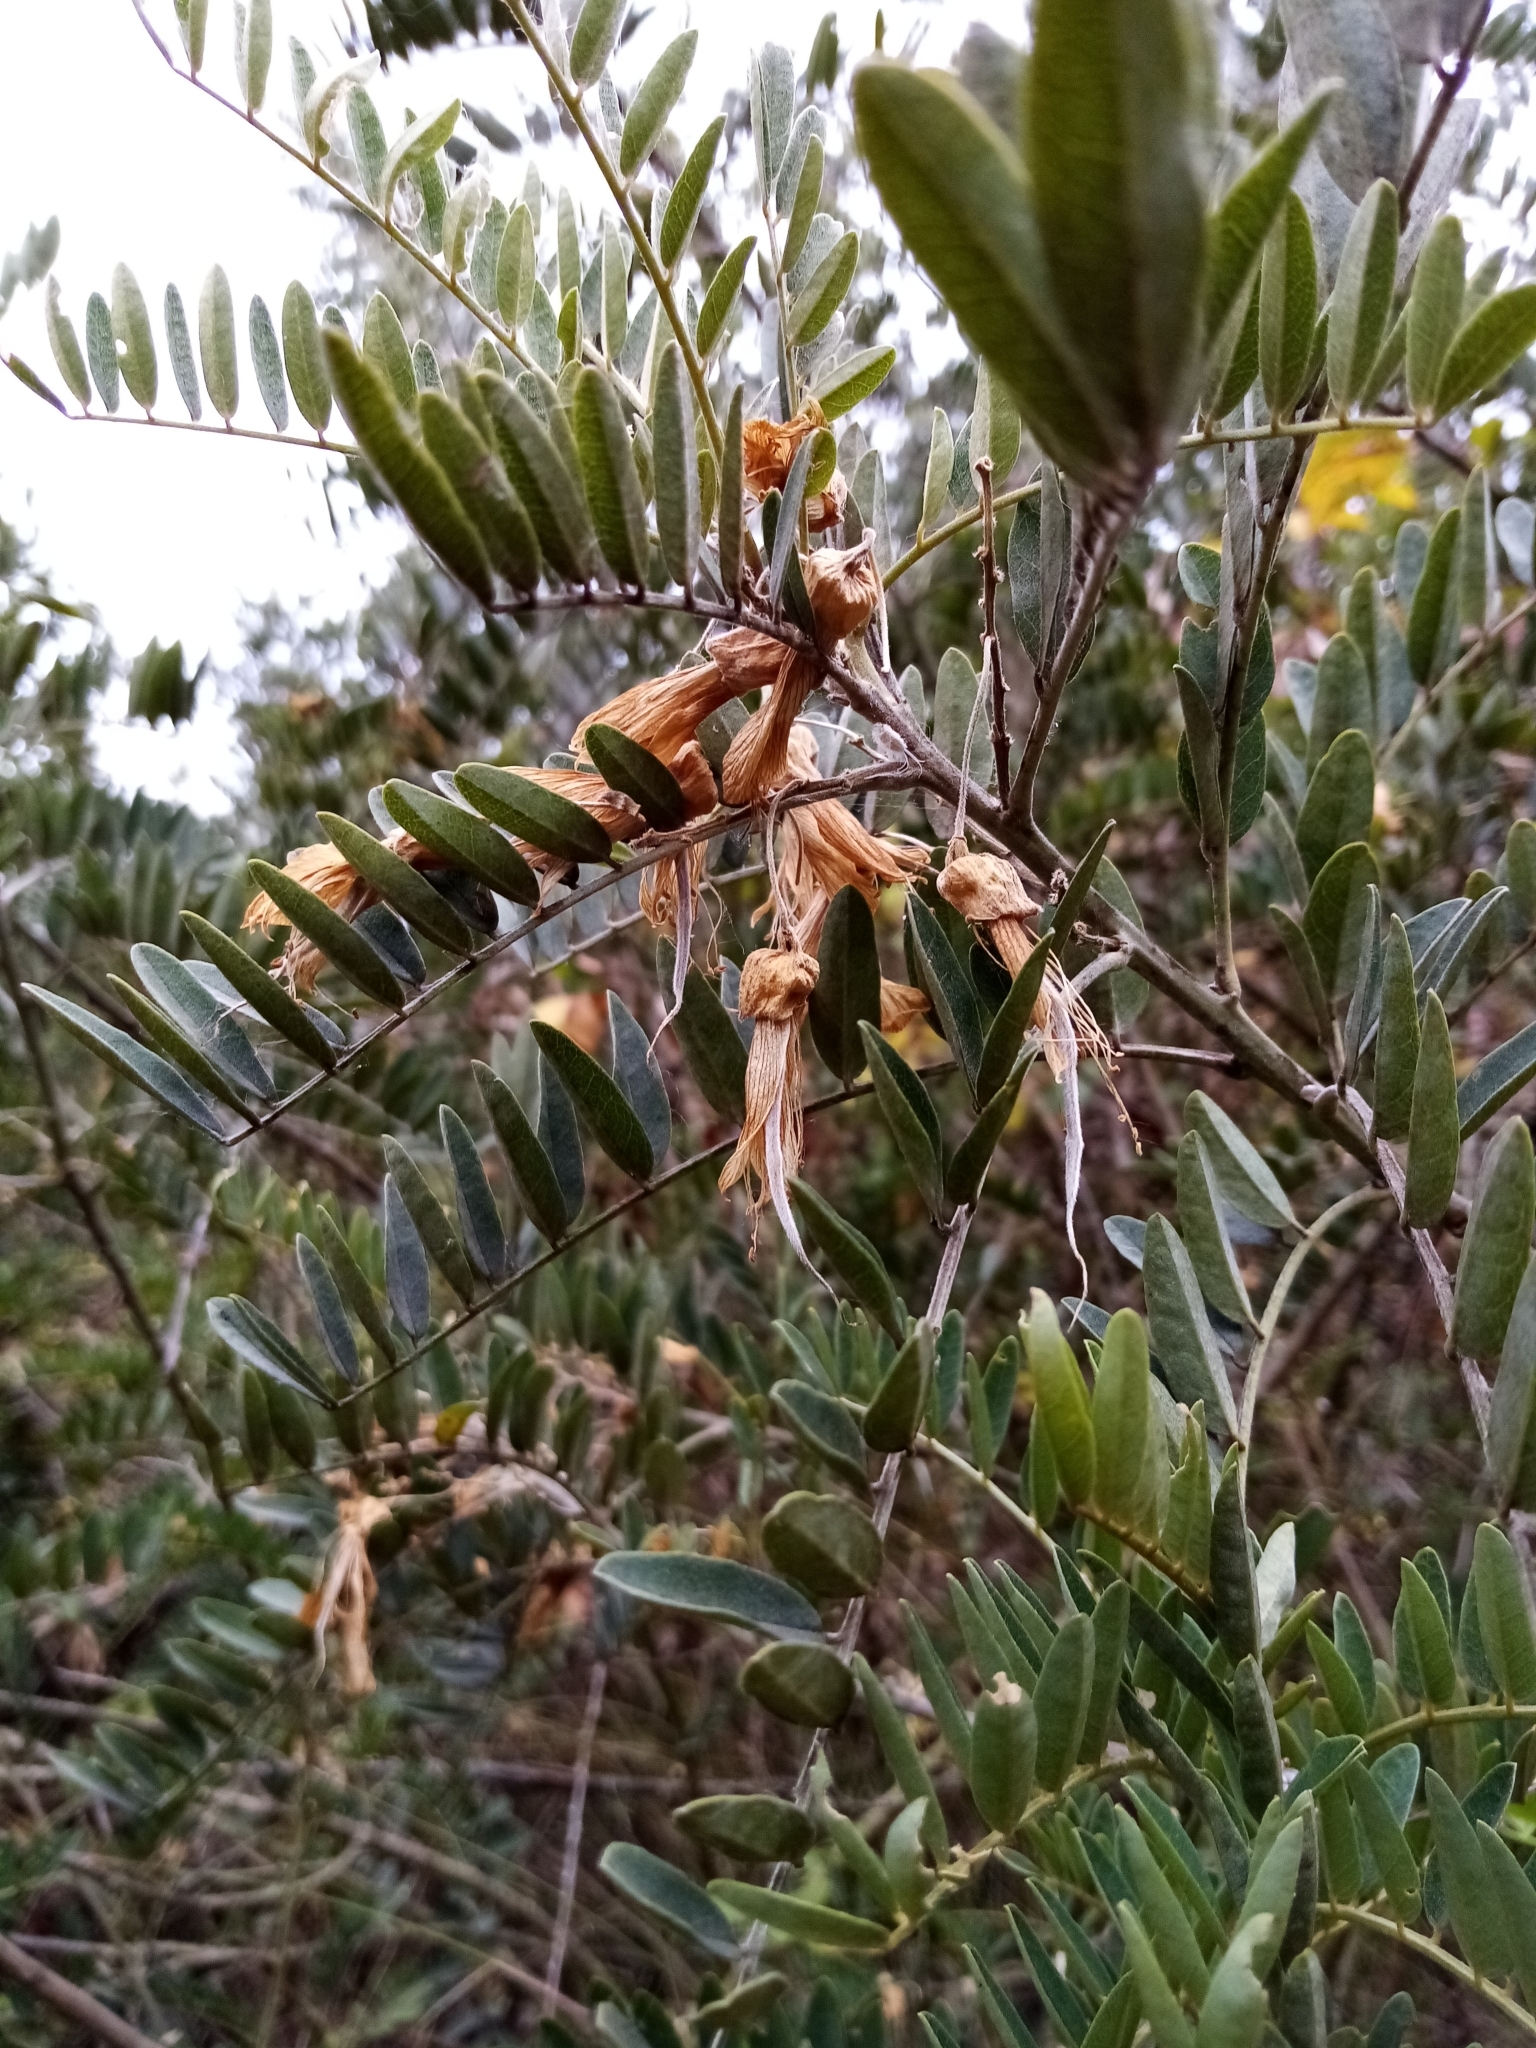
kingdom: Plantae
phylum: Tracheophyta
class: Magnoliopsida
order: Fabales
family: Fabaceae
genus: Sophora
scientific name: Sophora macrocarpa
